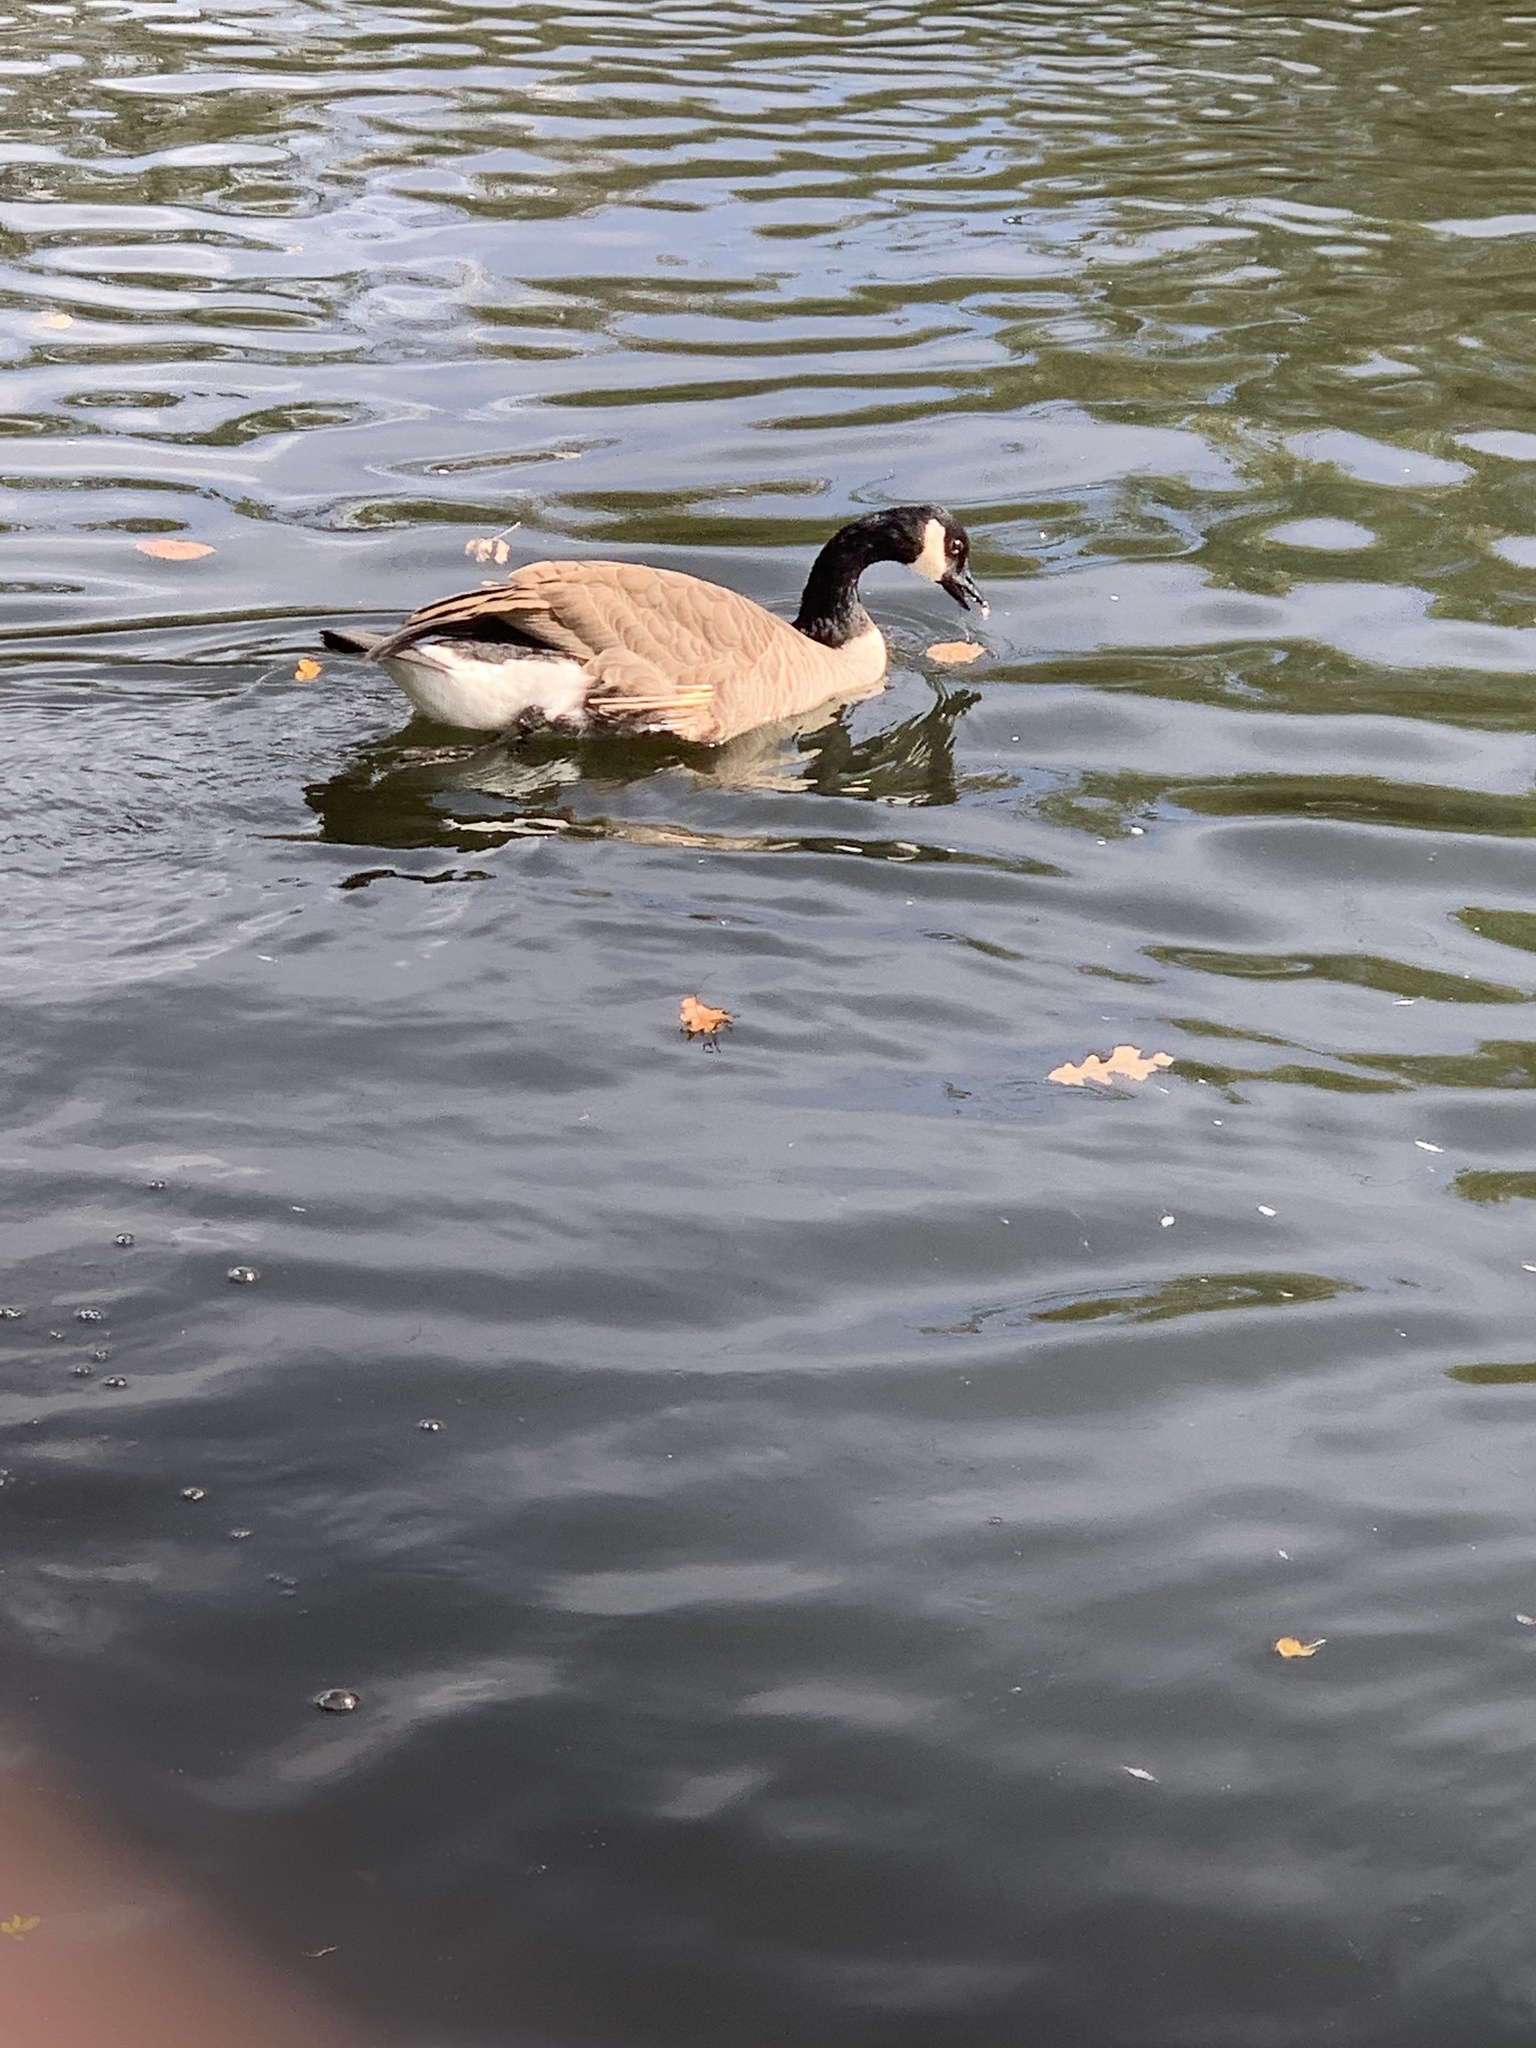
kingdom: Animalia
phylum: Chordata
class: Aves
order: Anseriformes
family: Anatidae
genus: Branta
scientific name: Branta canadensis
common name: Canada goose
